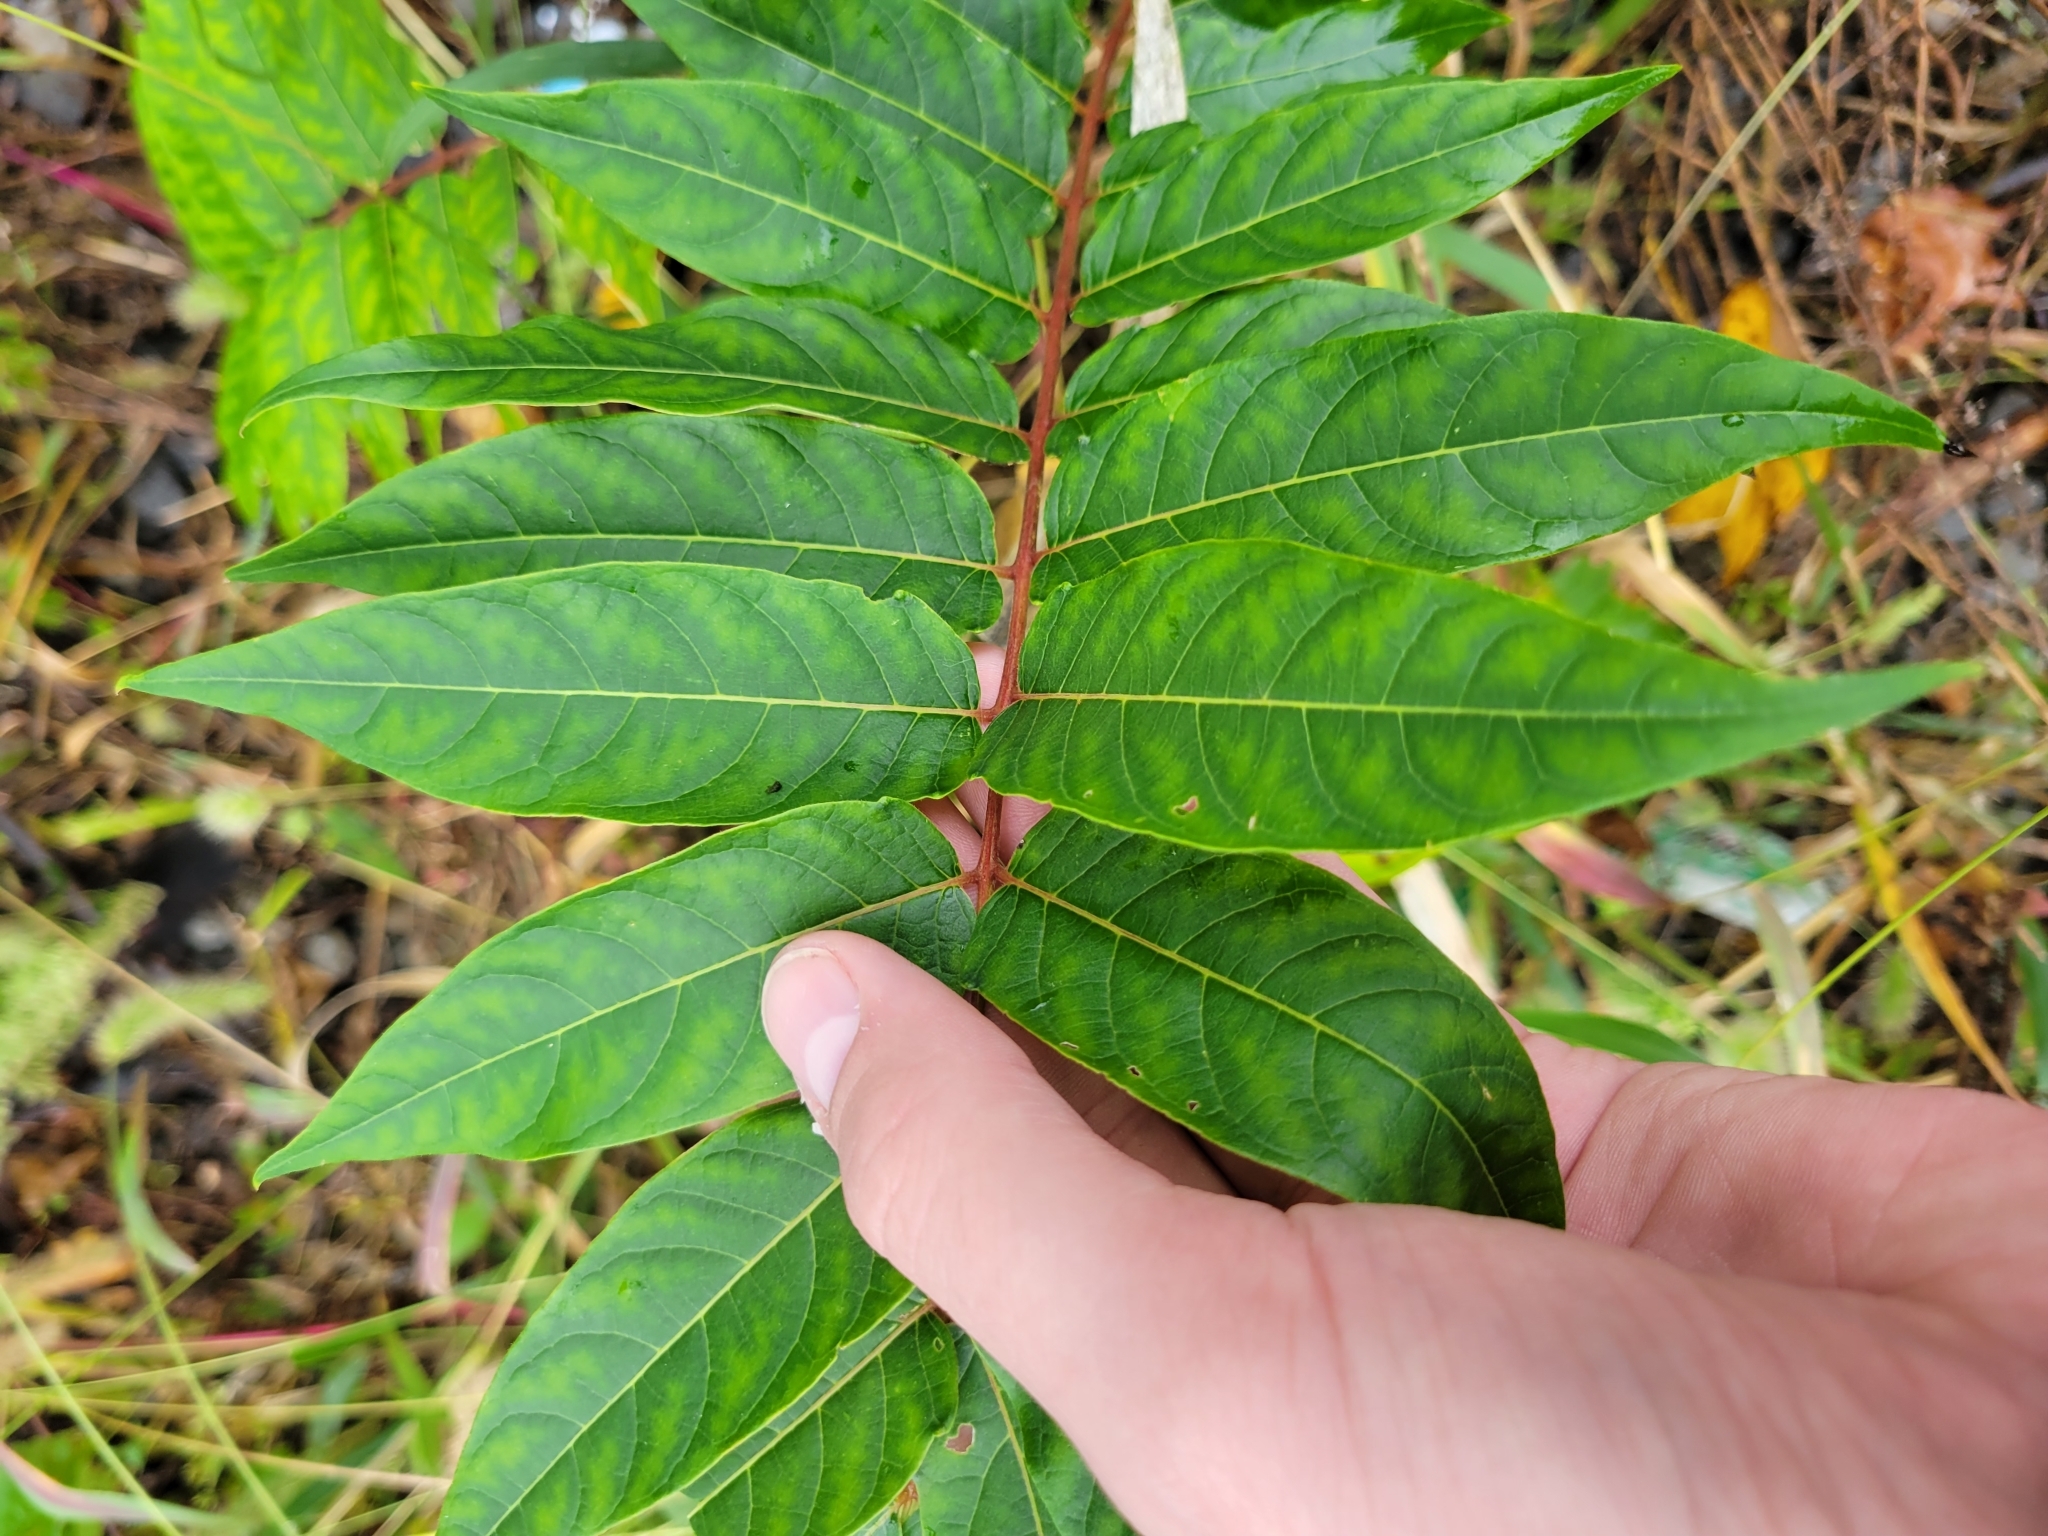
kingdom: Plantae
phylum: Tracheophyta
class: Magnoliopsida
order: Sapindales
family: Simaroubaceae
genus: Ailanthus
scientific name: Ailanthus altissima
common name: Tree-of-heaven
